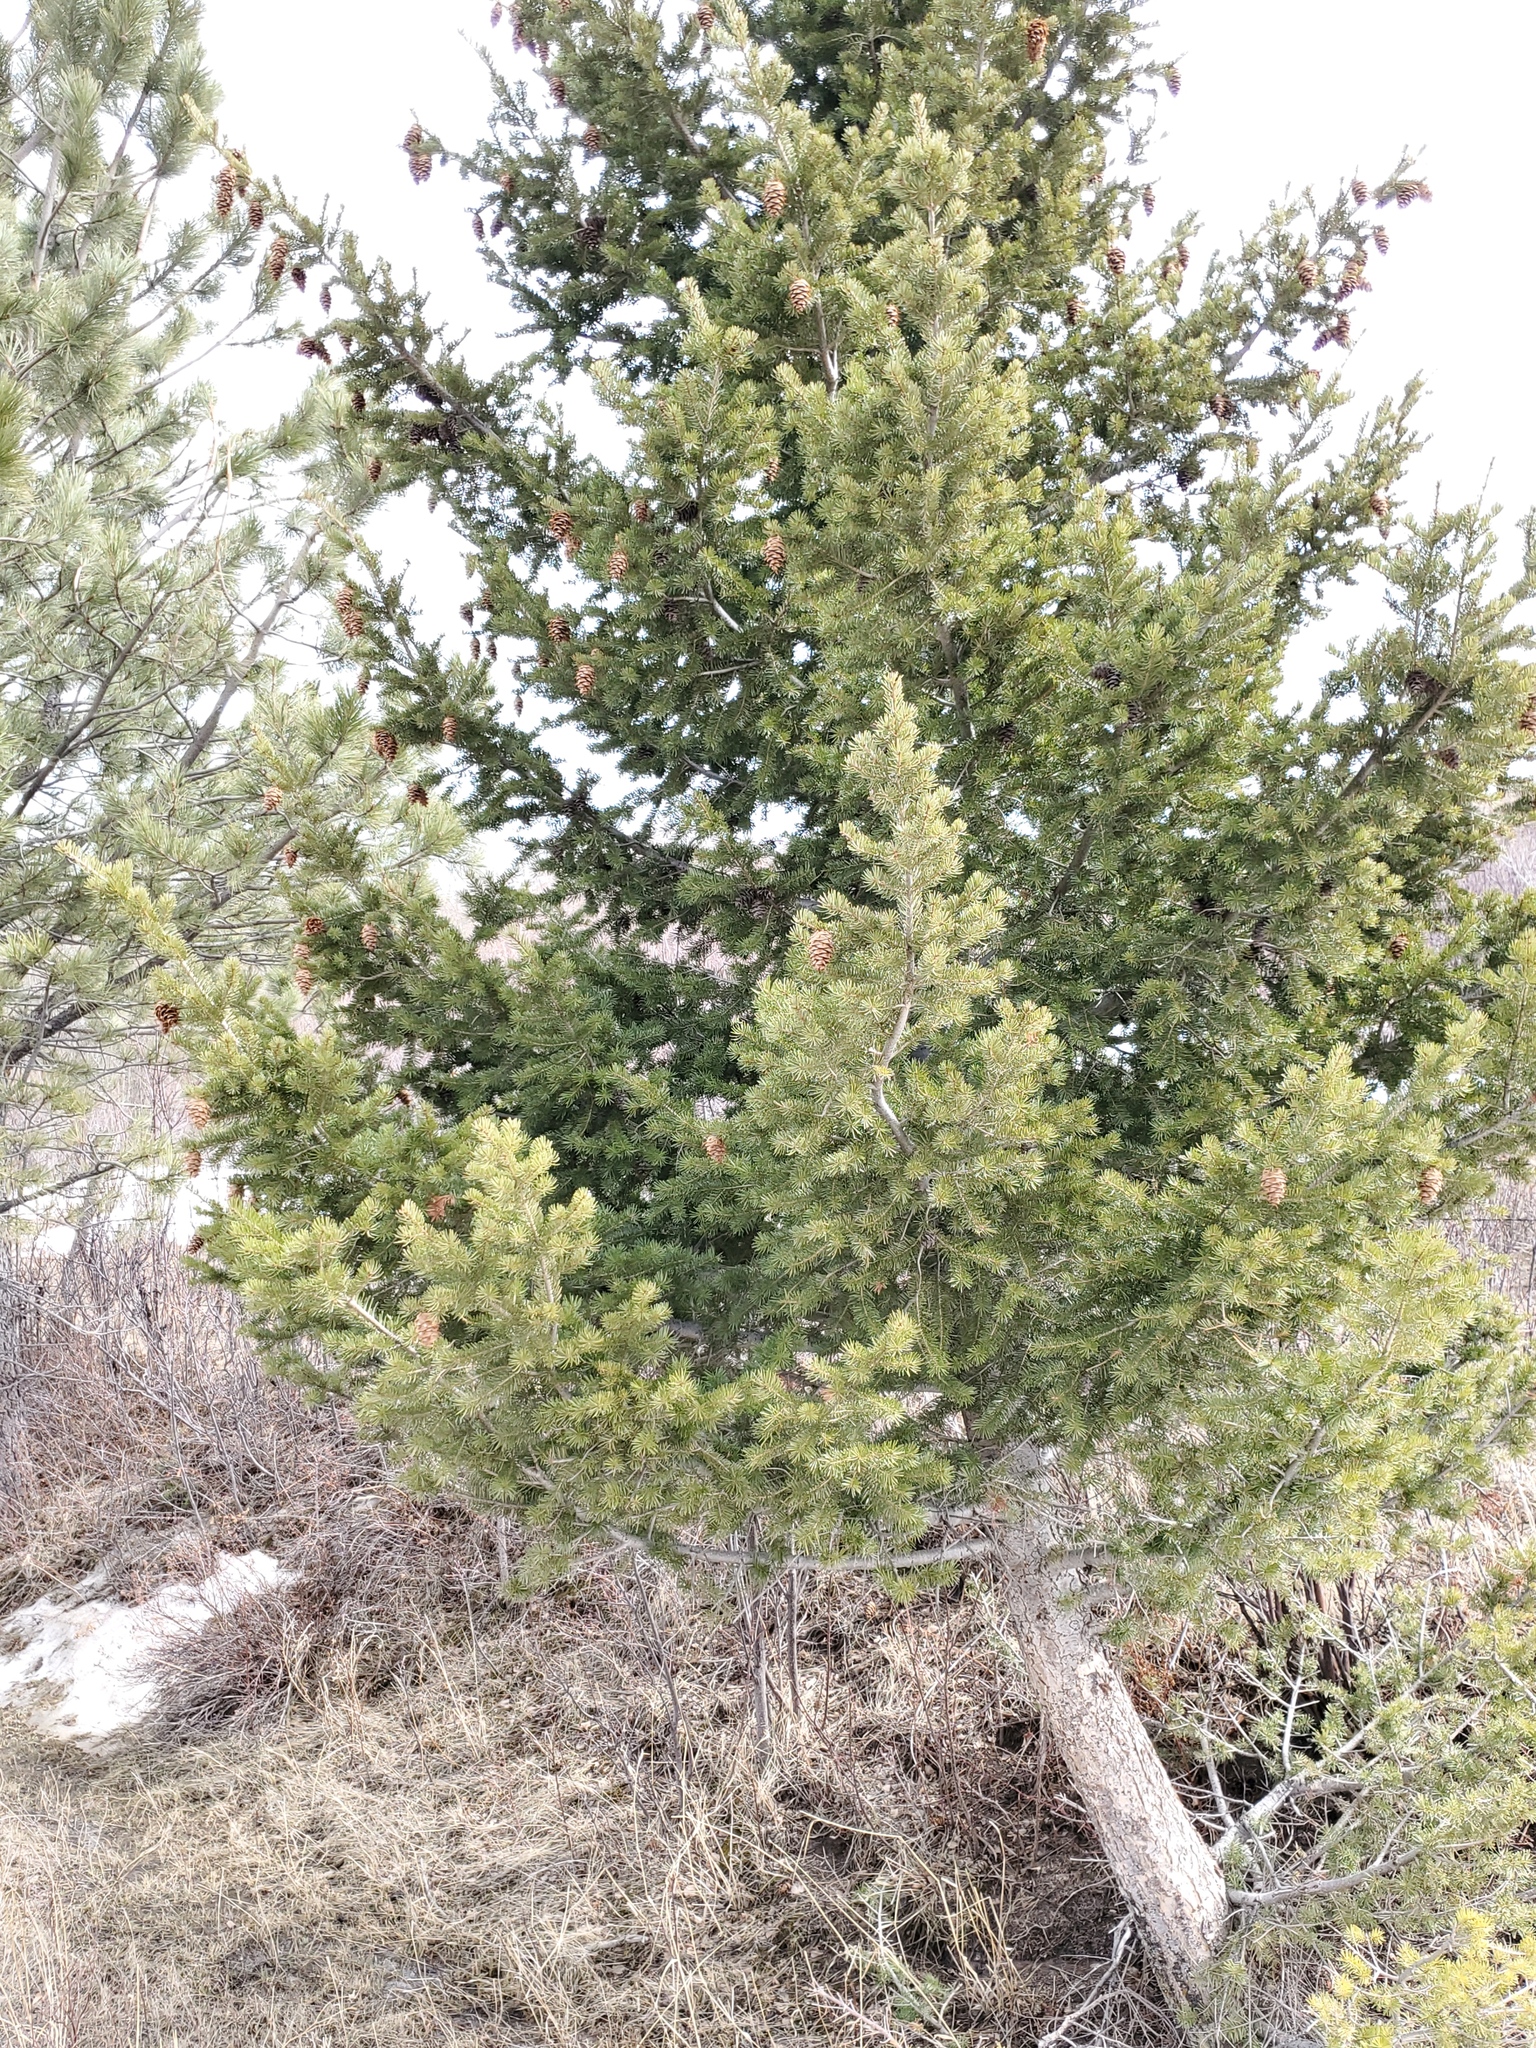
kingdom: Plantae
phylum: Tracheophyta
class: Pinopsida
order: Pinales
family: Pinaceae
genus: Pseudotsuga
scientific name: Pseudotsuga menziesii
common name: Douglas fir
